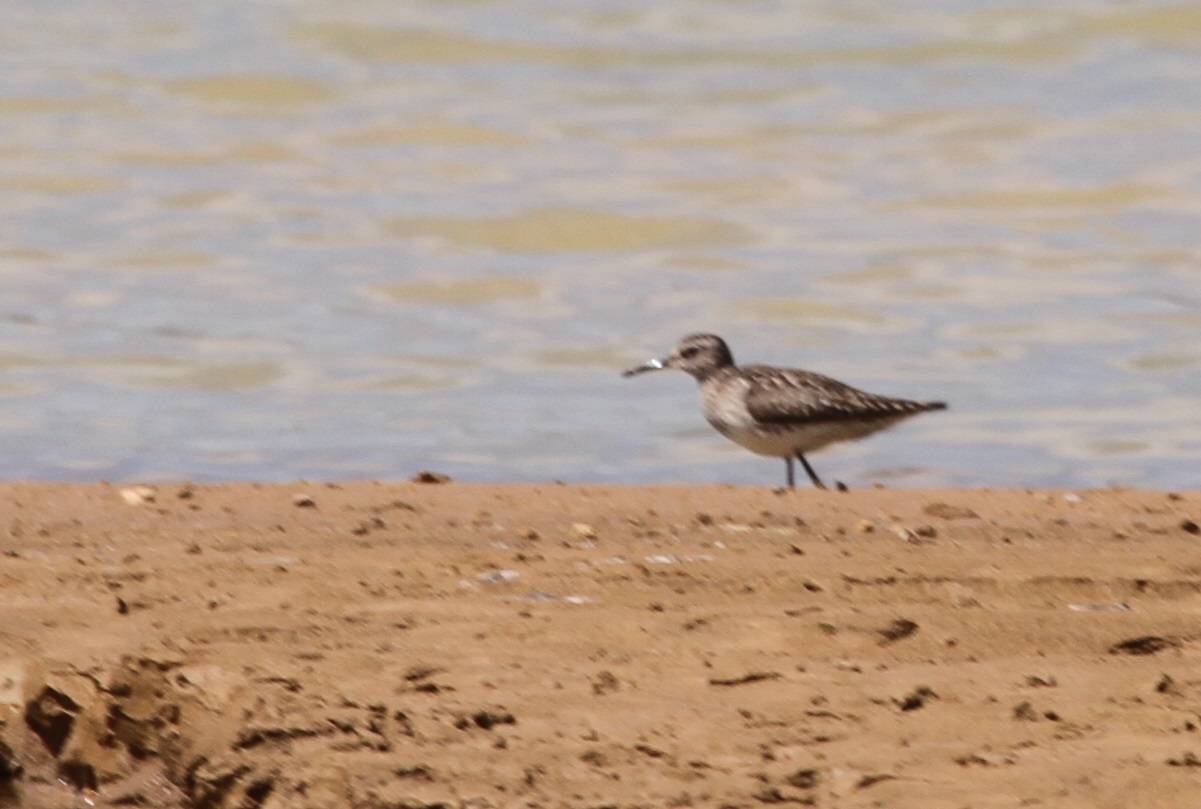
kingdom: Animalia
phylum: Chordata
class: Aves
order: Charadriiformes
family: Scolopacidae
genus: Tringa
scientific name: Tringa glareola
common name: Wood sandpiper
